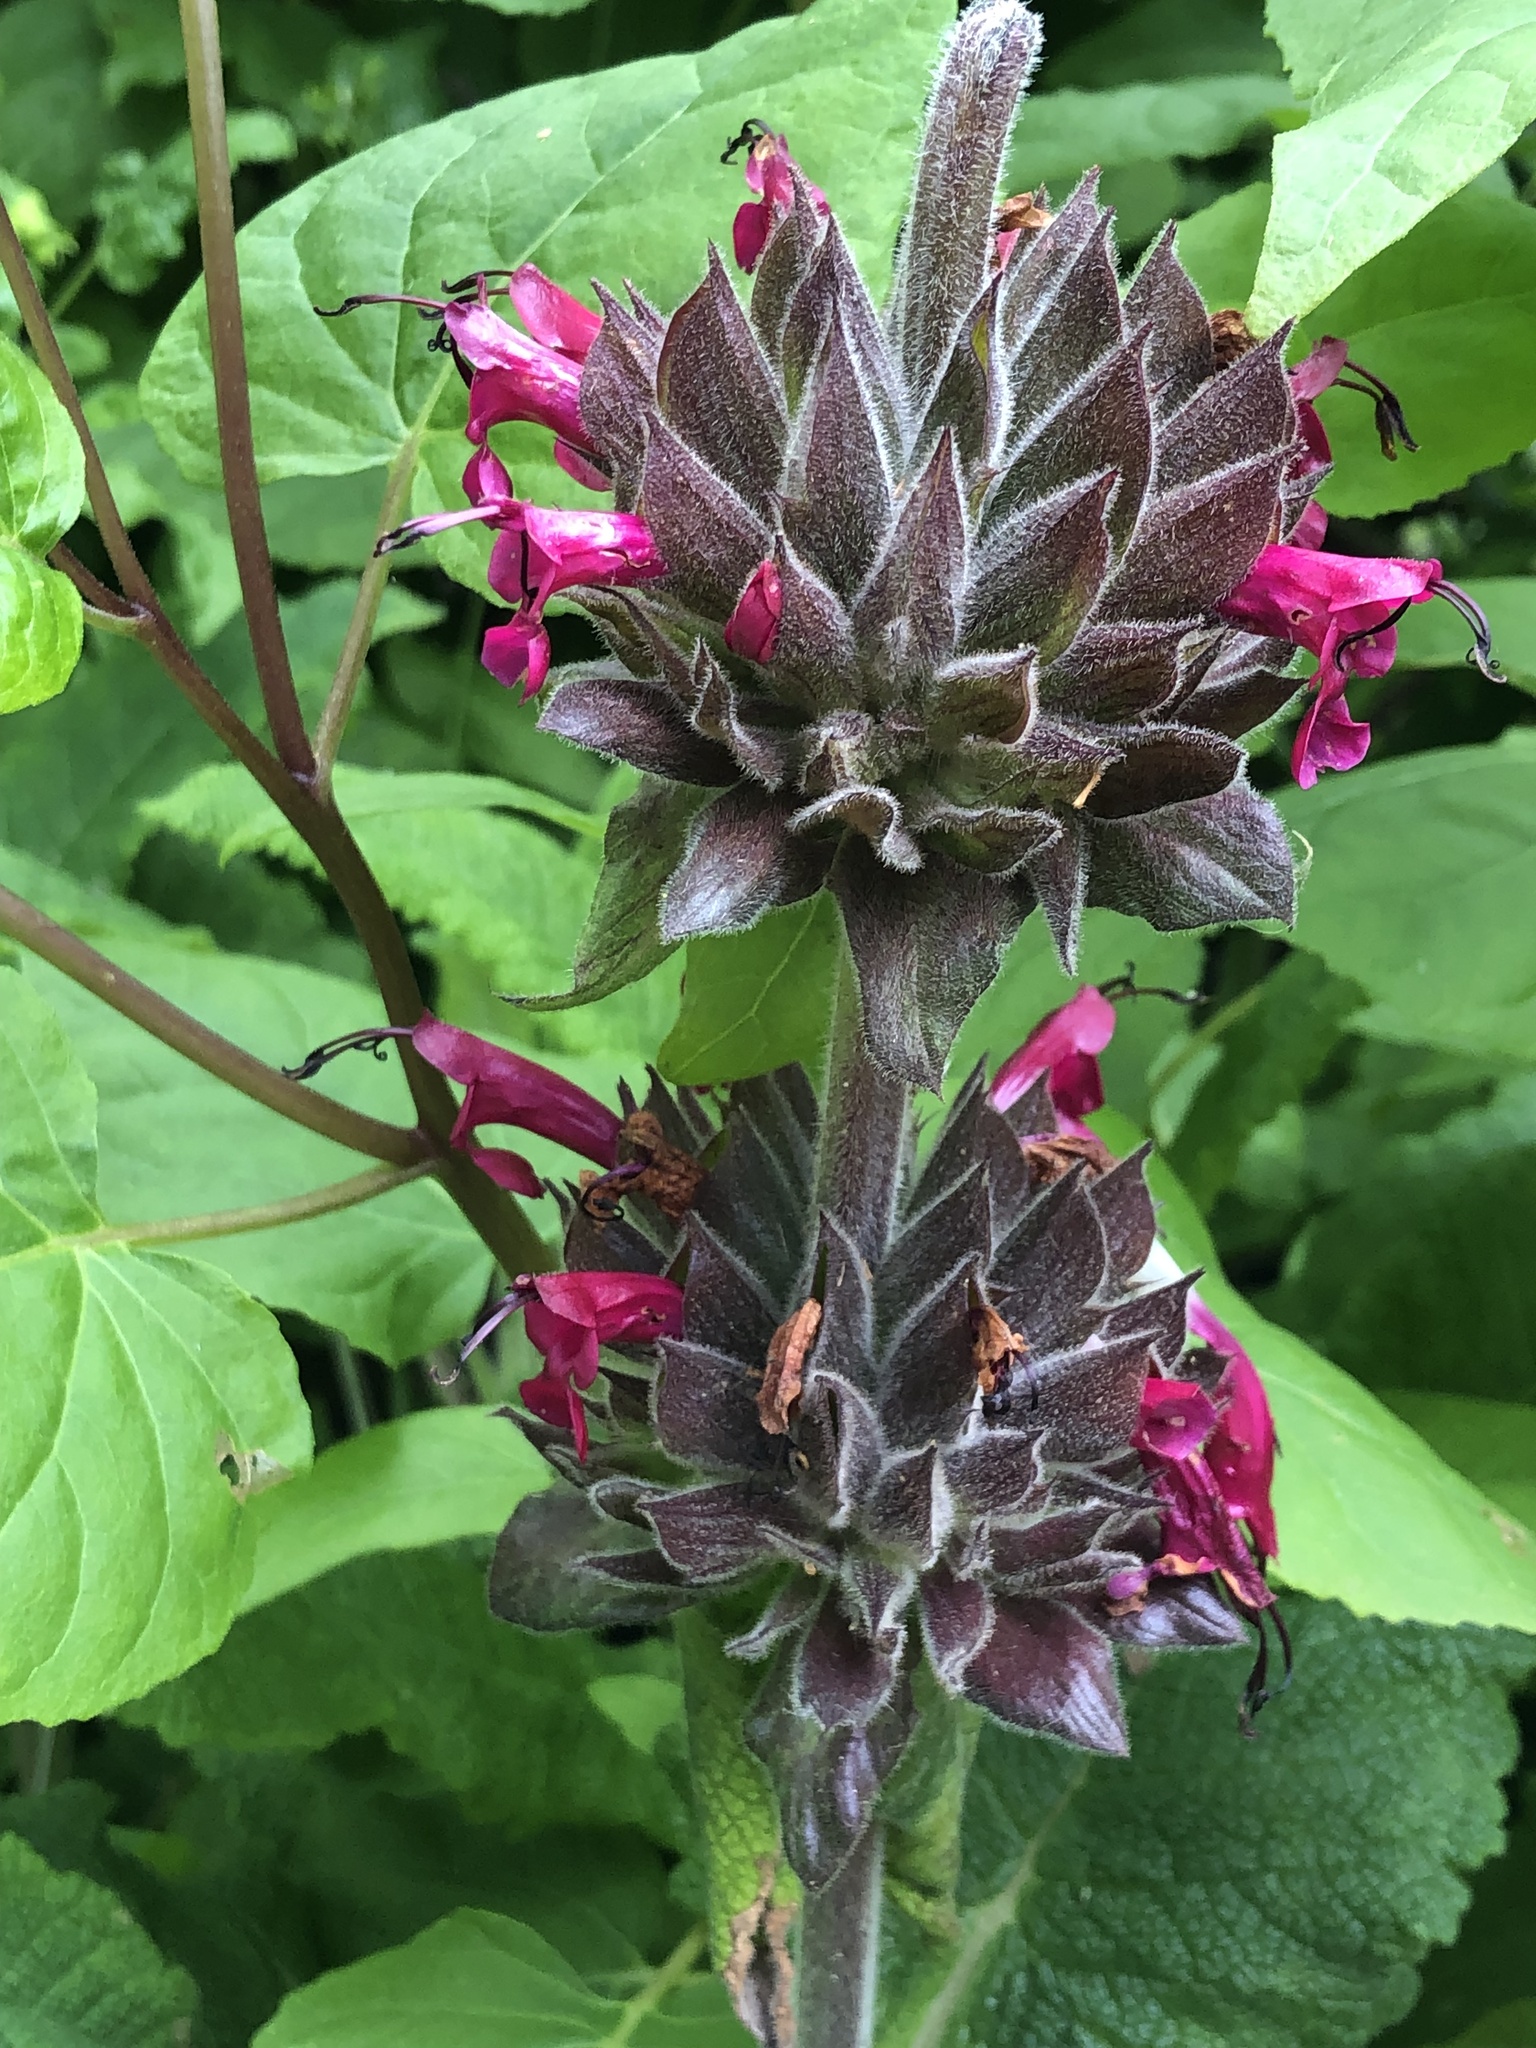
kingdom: Plantae
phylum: Tracheophyta
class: Magnoliopsida
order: Lamiales
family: Lamiaceae
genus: Salvia
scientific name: Salvia spathacea
